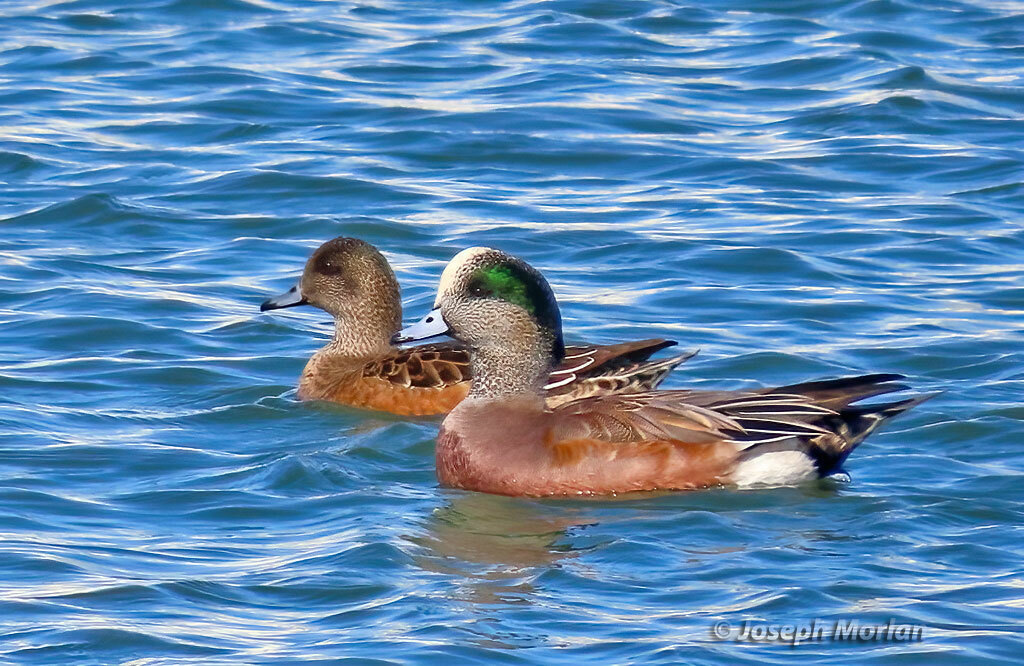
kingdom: Animalia
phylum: Chordata
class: Aves
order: Anseriformes
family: Anatidae
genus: Mareca
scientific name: Mareca americana
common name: American wigeon
